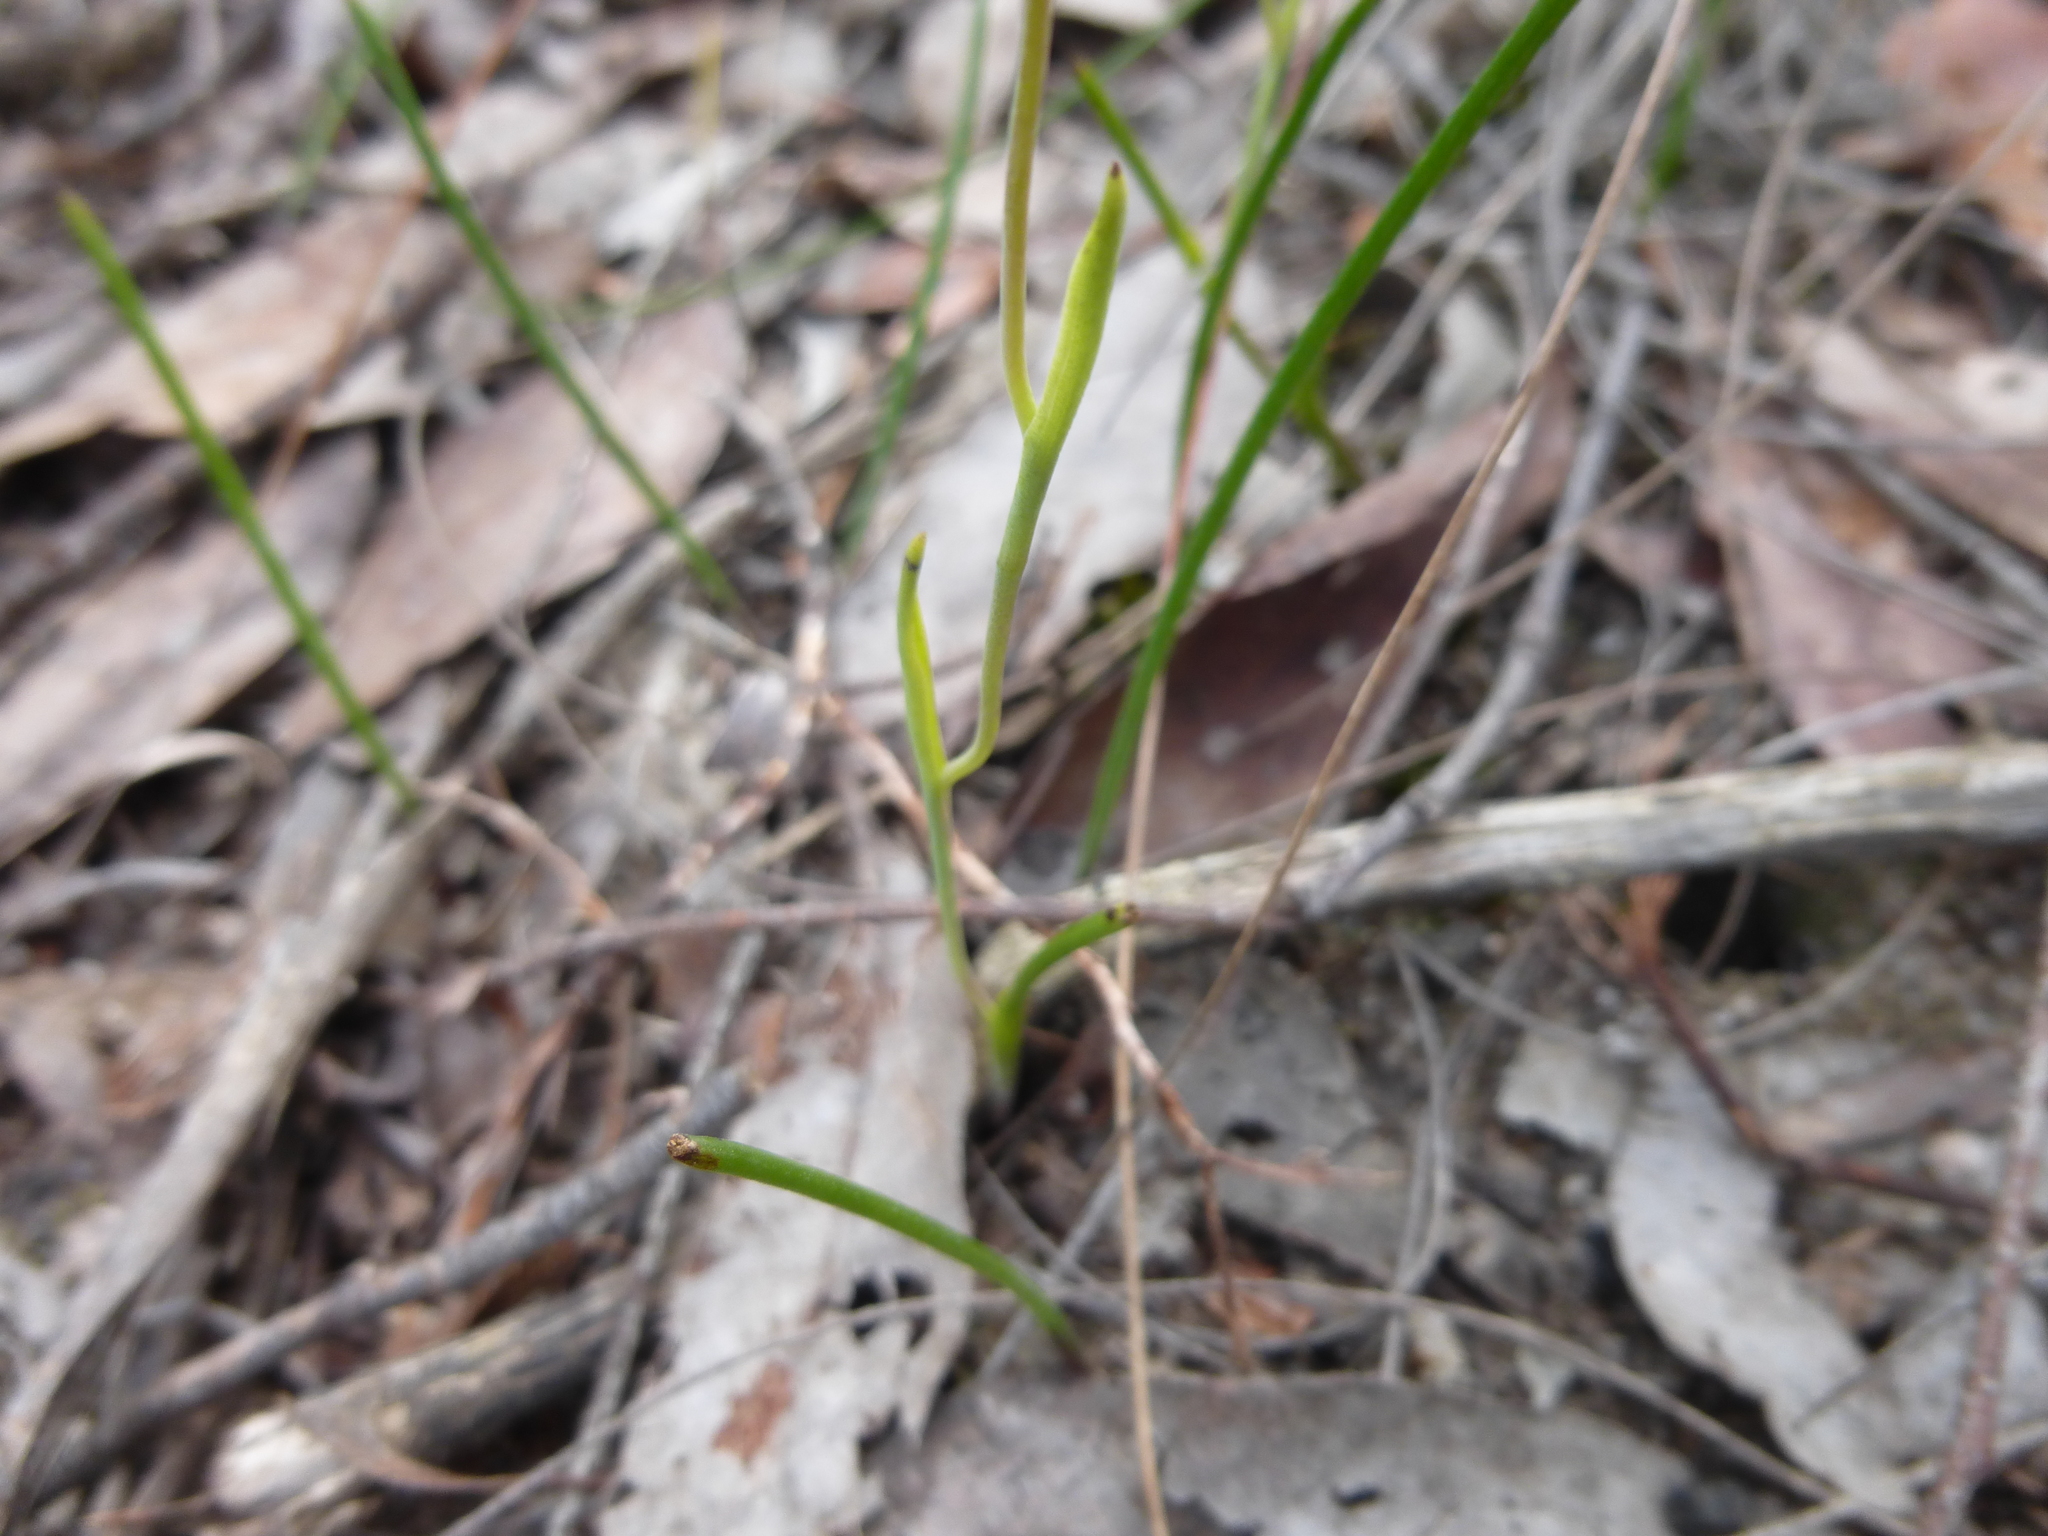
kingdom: Plantae
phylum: Tracheophyta
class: Liliopsida
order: Asparagales
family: Orchidaceae
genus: Thelymitra
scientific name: Thelymitra antennifera
